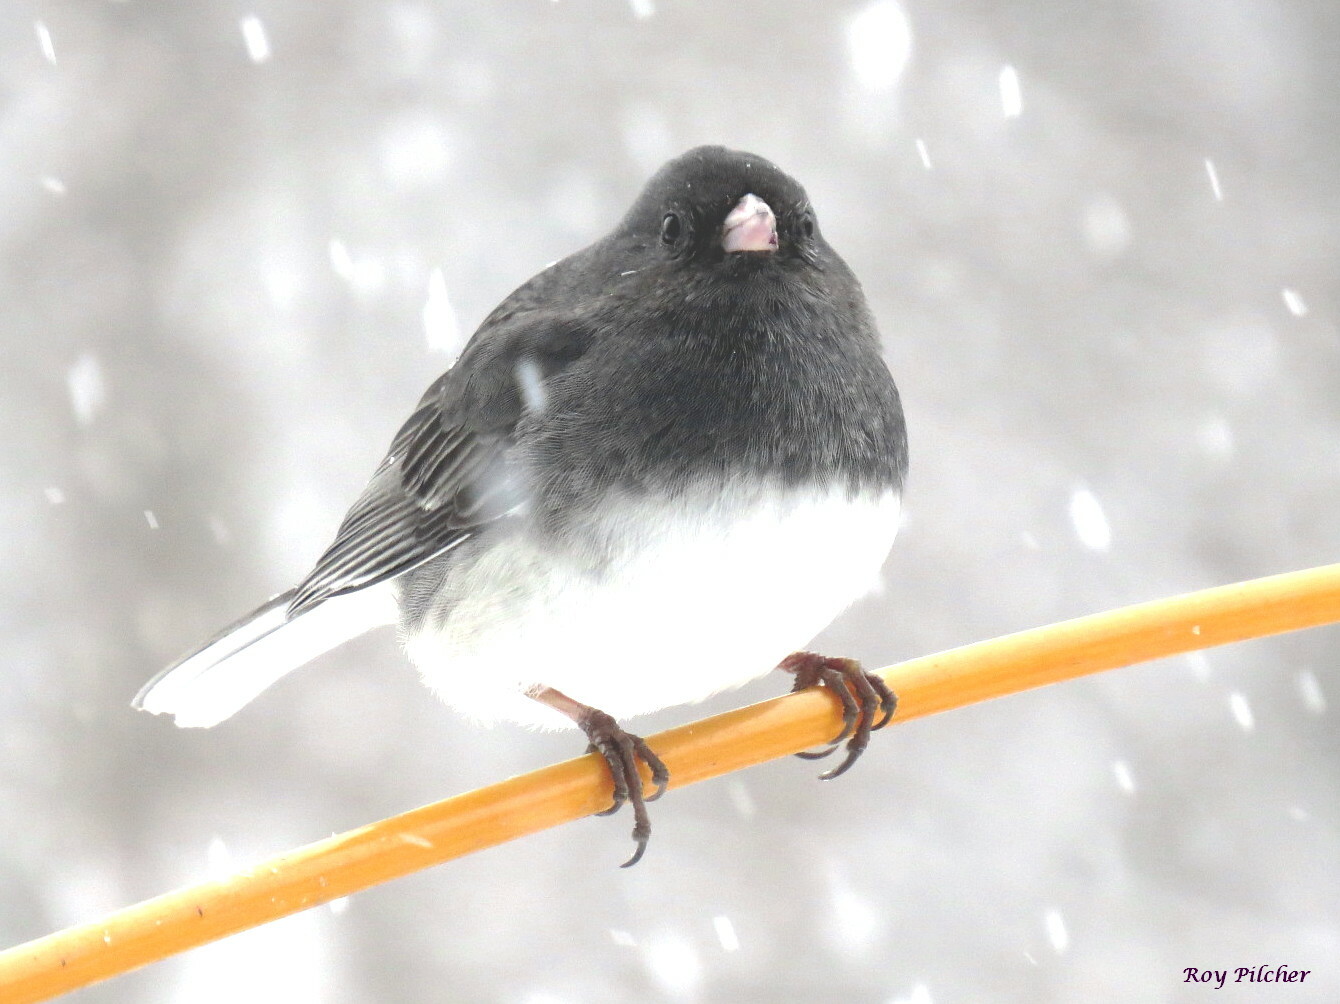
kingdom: Animalia
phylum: Chordata
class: Aves
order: Passeriformes
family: Passerellidae
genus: Junco
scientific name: Junco hyemalis
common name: Dark-eyed junco
